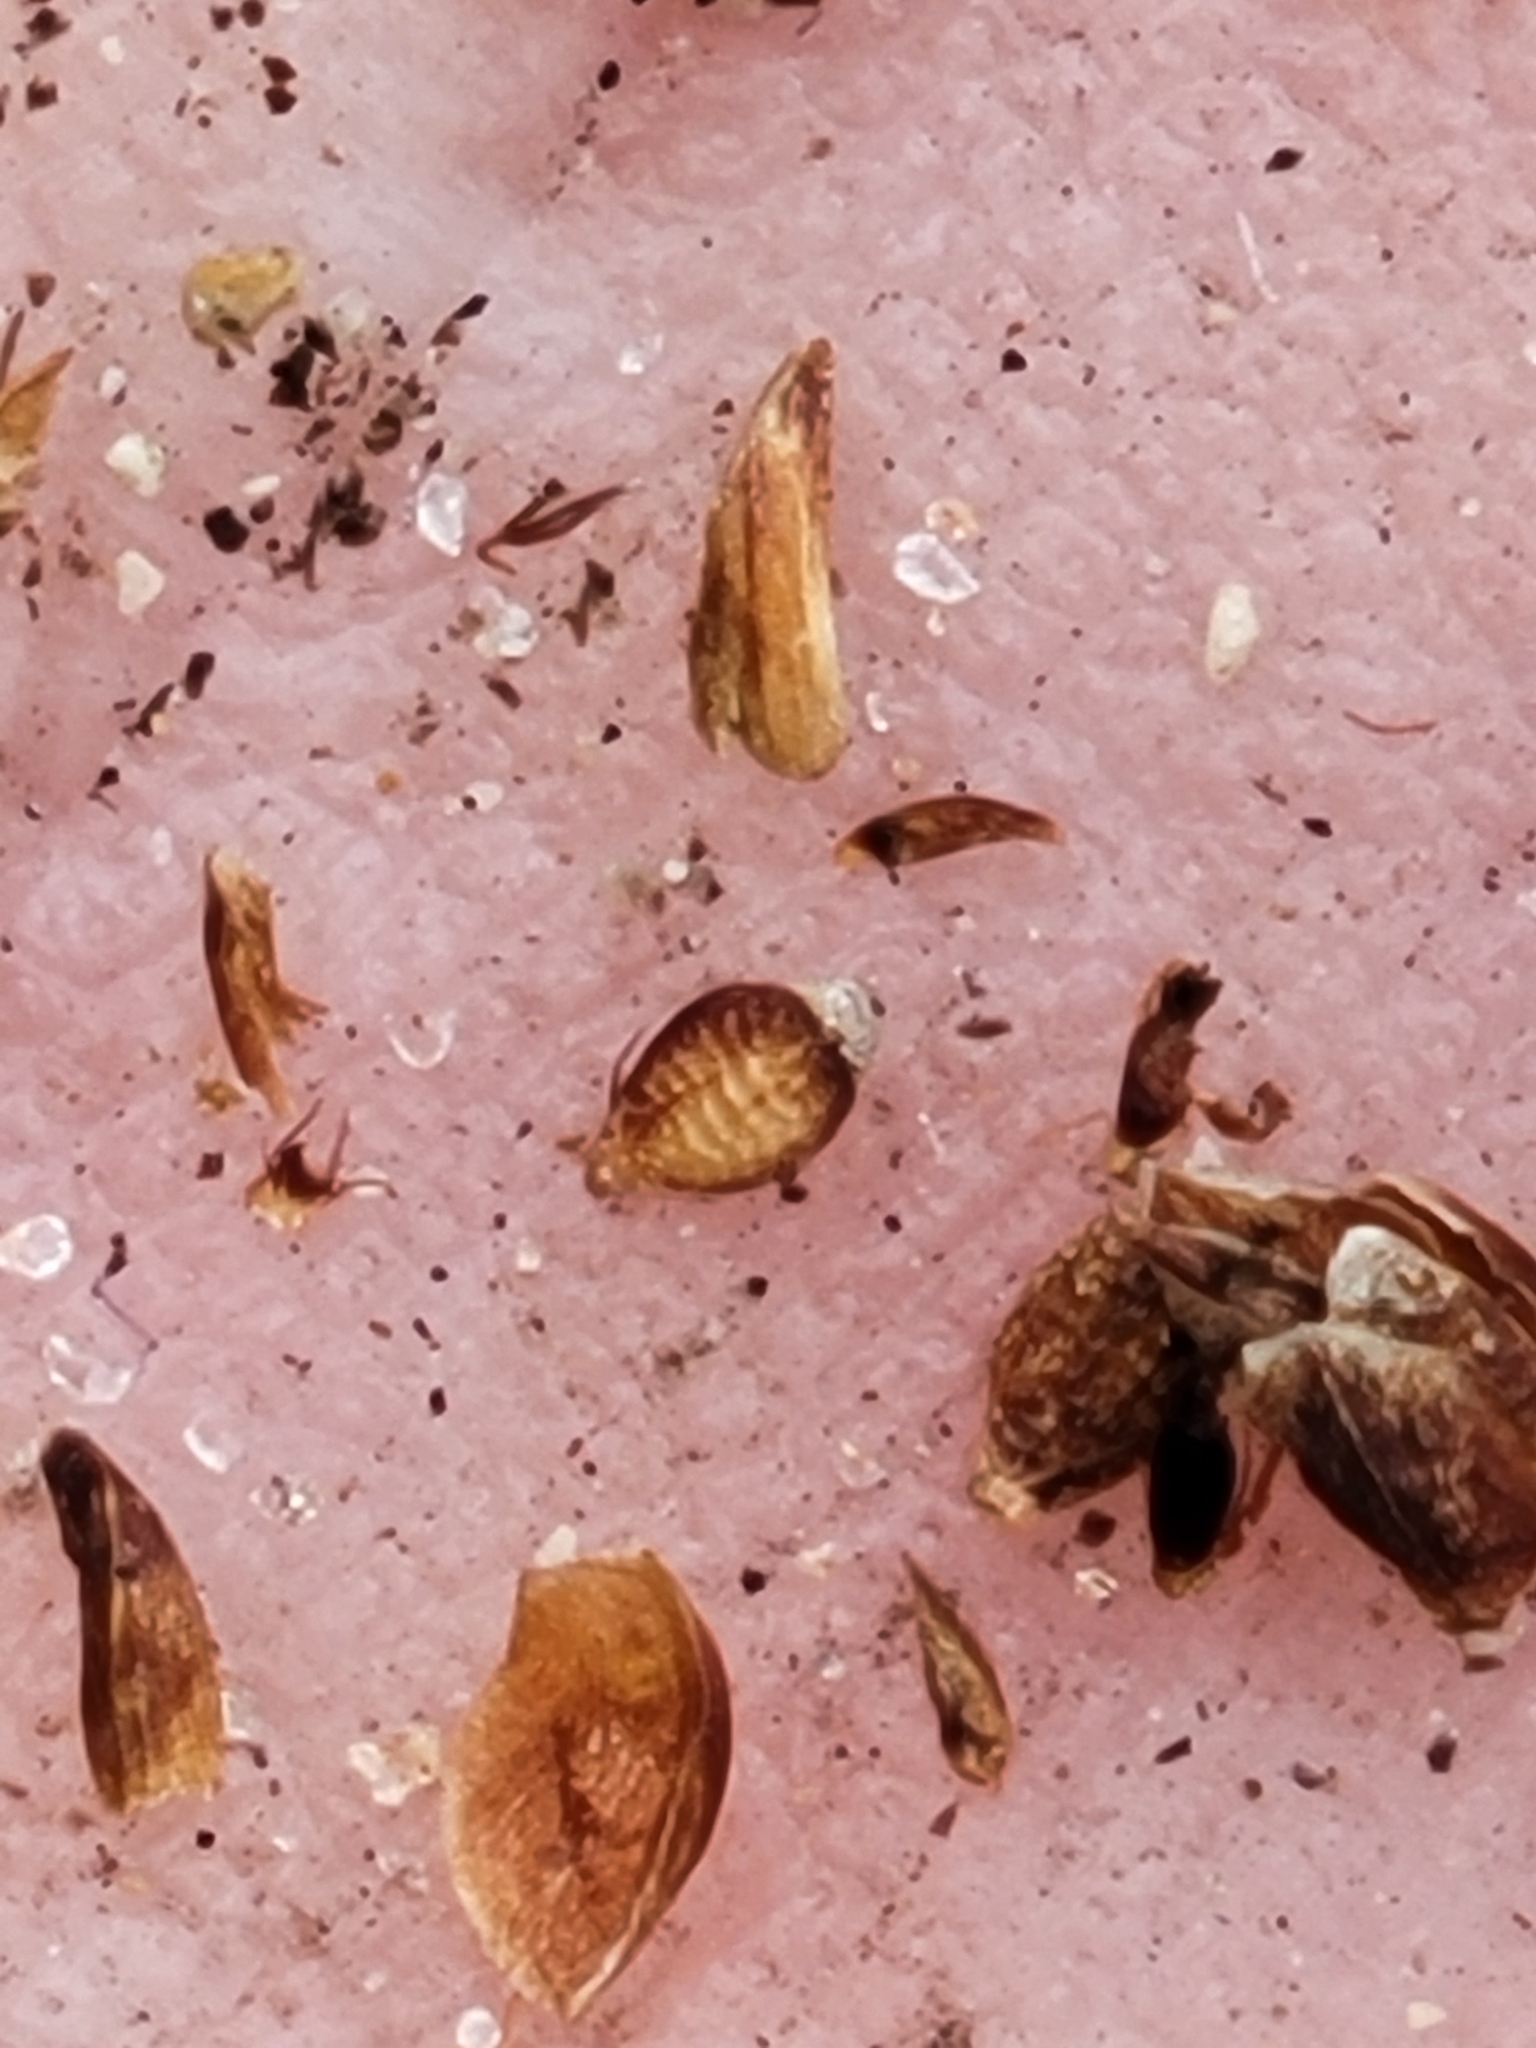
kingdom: Plantae
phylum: Tracheophyta
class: Liliopsida
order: Poales
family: Cyperaceae
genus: Rhynchospora
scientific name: Rhynchospora microcarpa
